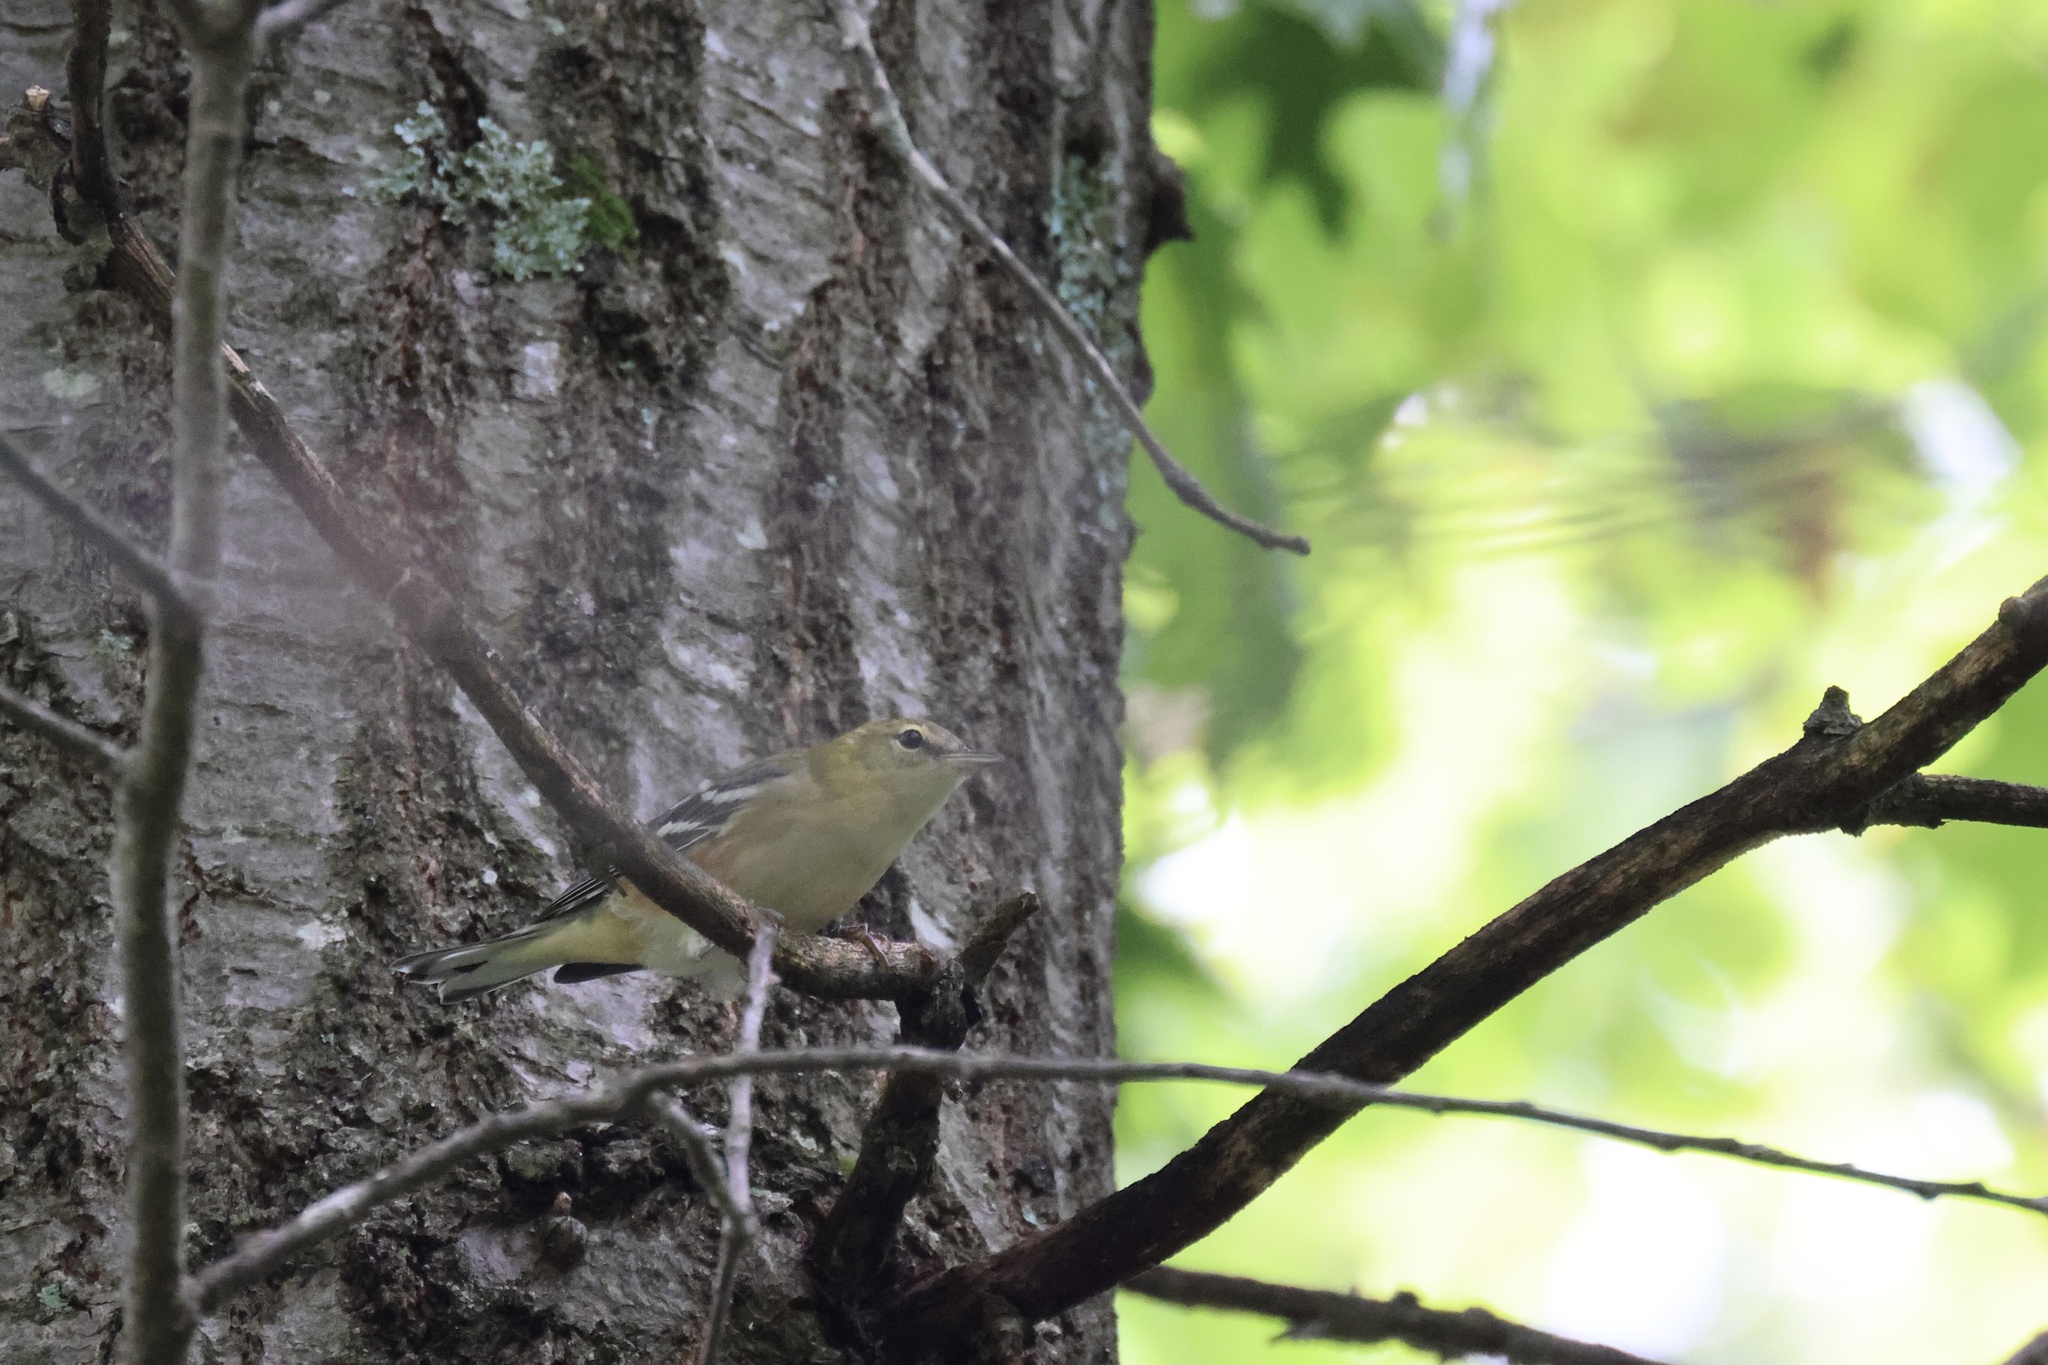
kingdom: Animalia
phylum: Chordata
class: Aves
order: Passeriformes
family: Parulidae
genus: Setophaga
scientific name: Setophaga castanea
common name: Bay-breasted warbler
